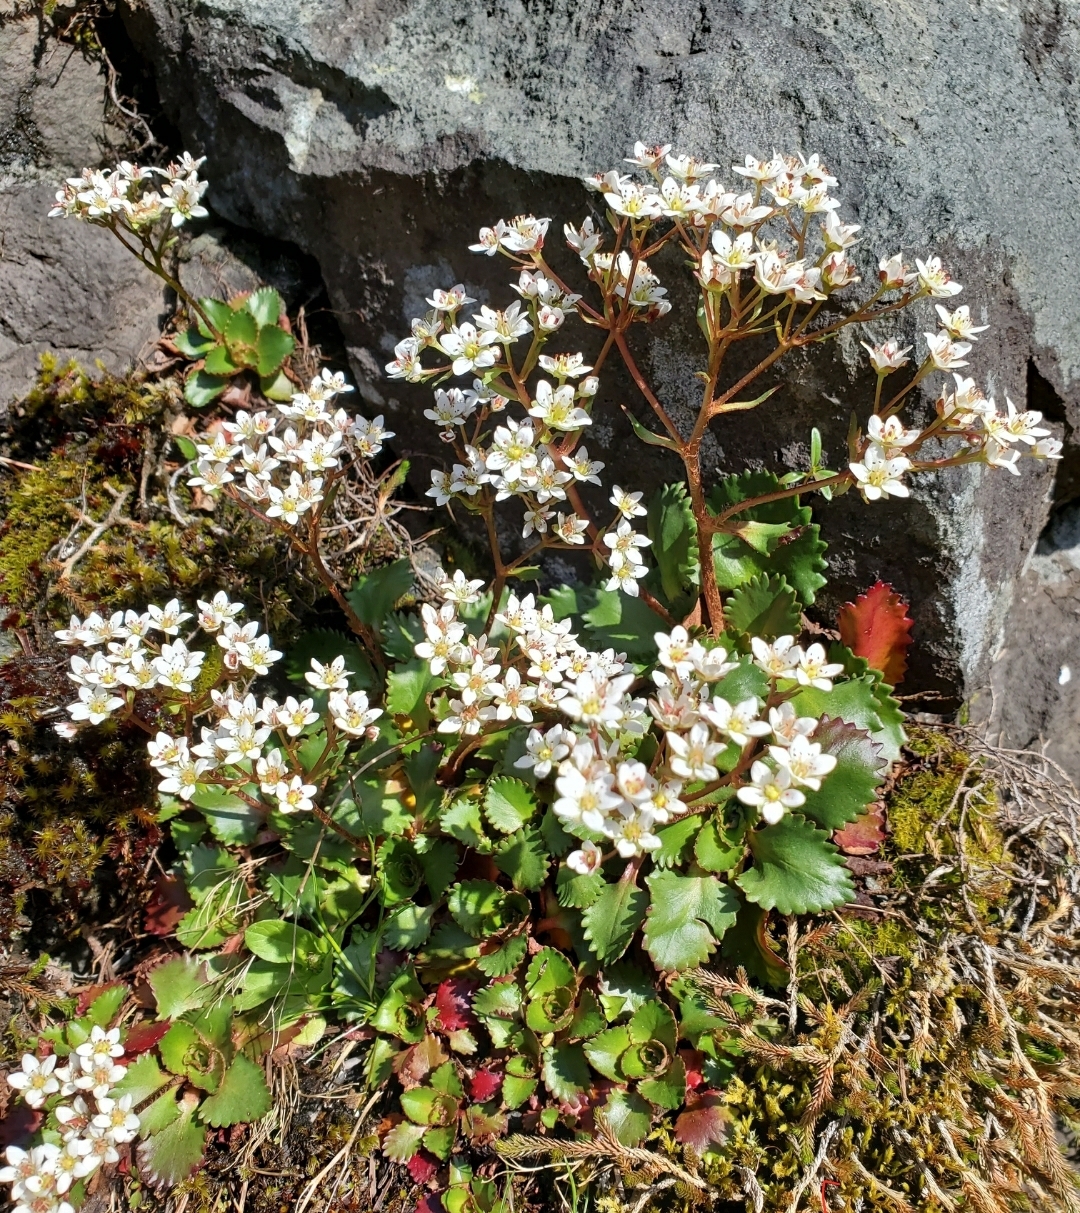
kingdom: Plantae
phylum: Tracheophyta
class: Magnoliopsida
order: Saxifragales
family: Saxifragaceae
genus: Micranthes
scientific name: Micranthes rufidula
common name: Rustyhair saxifrage
